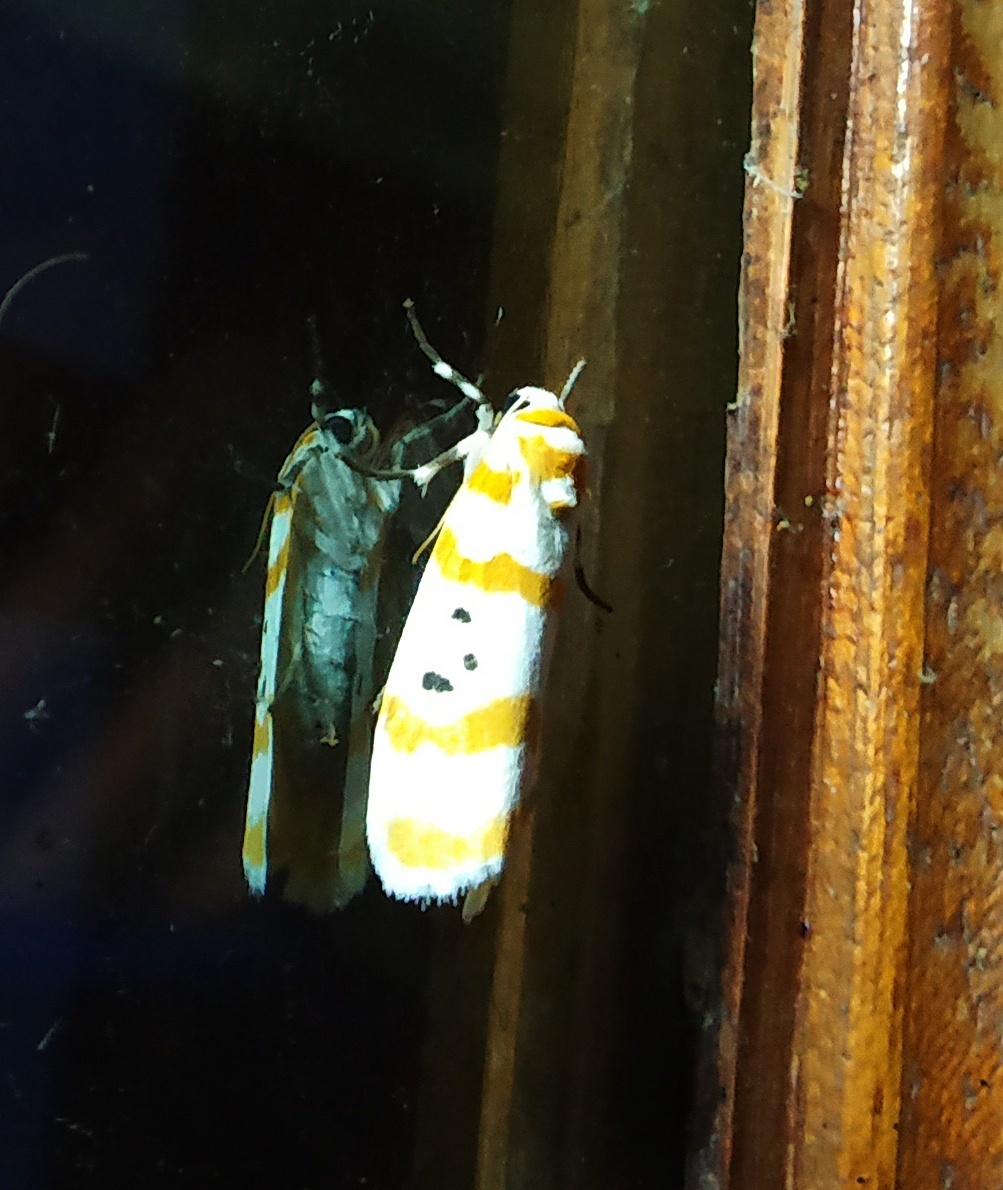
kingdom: Animalia
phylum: Arthropoda
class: Insecta
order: Lepidoptera
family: Erebidae
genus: Cyana
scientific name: Cyana guttifera
